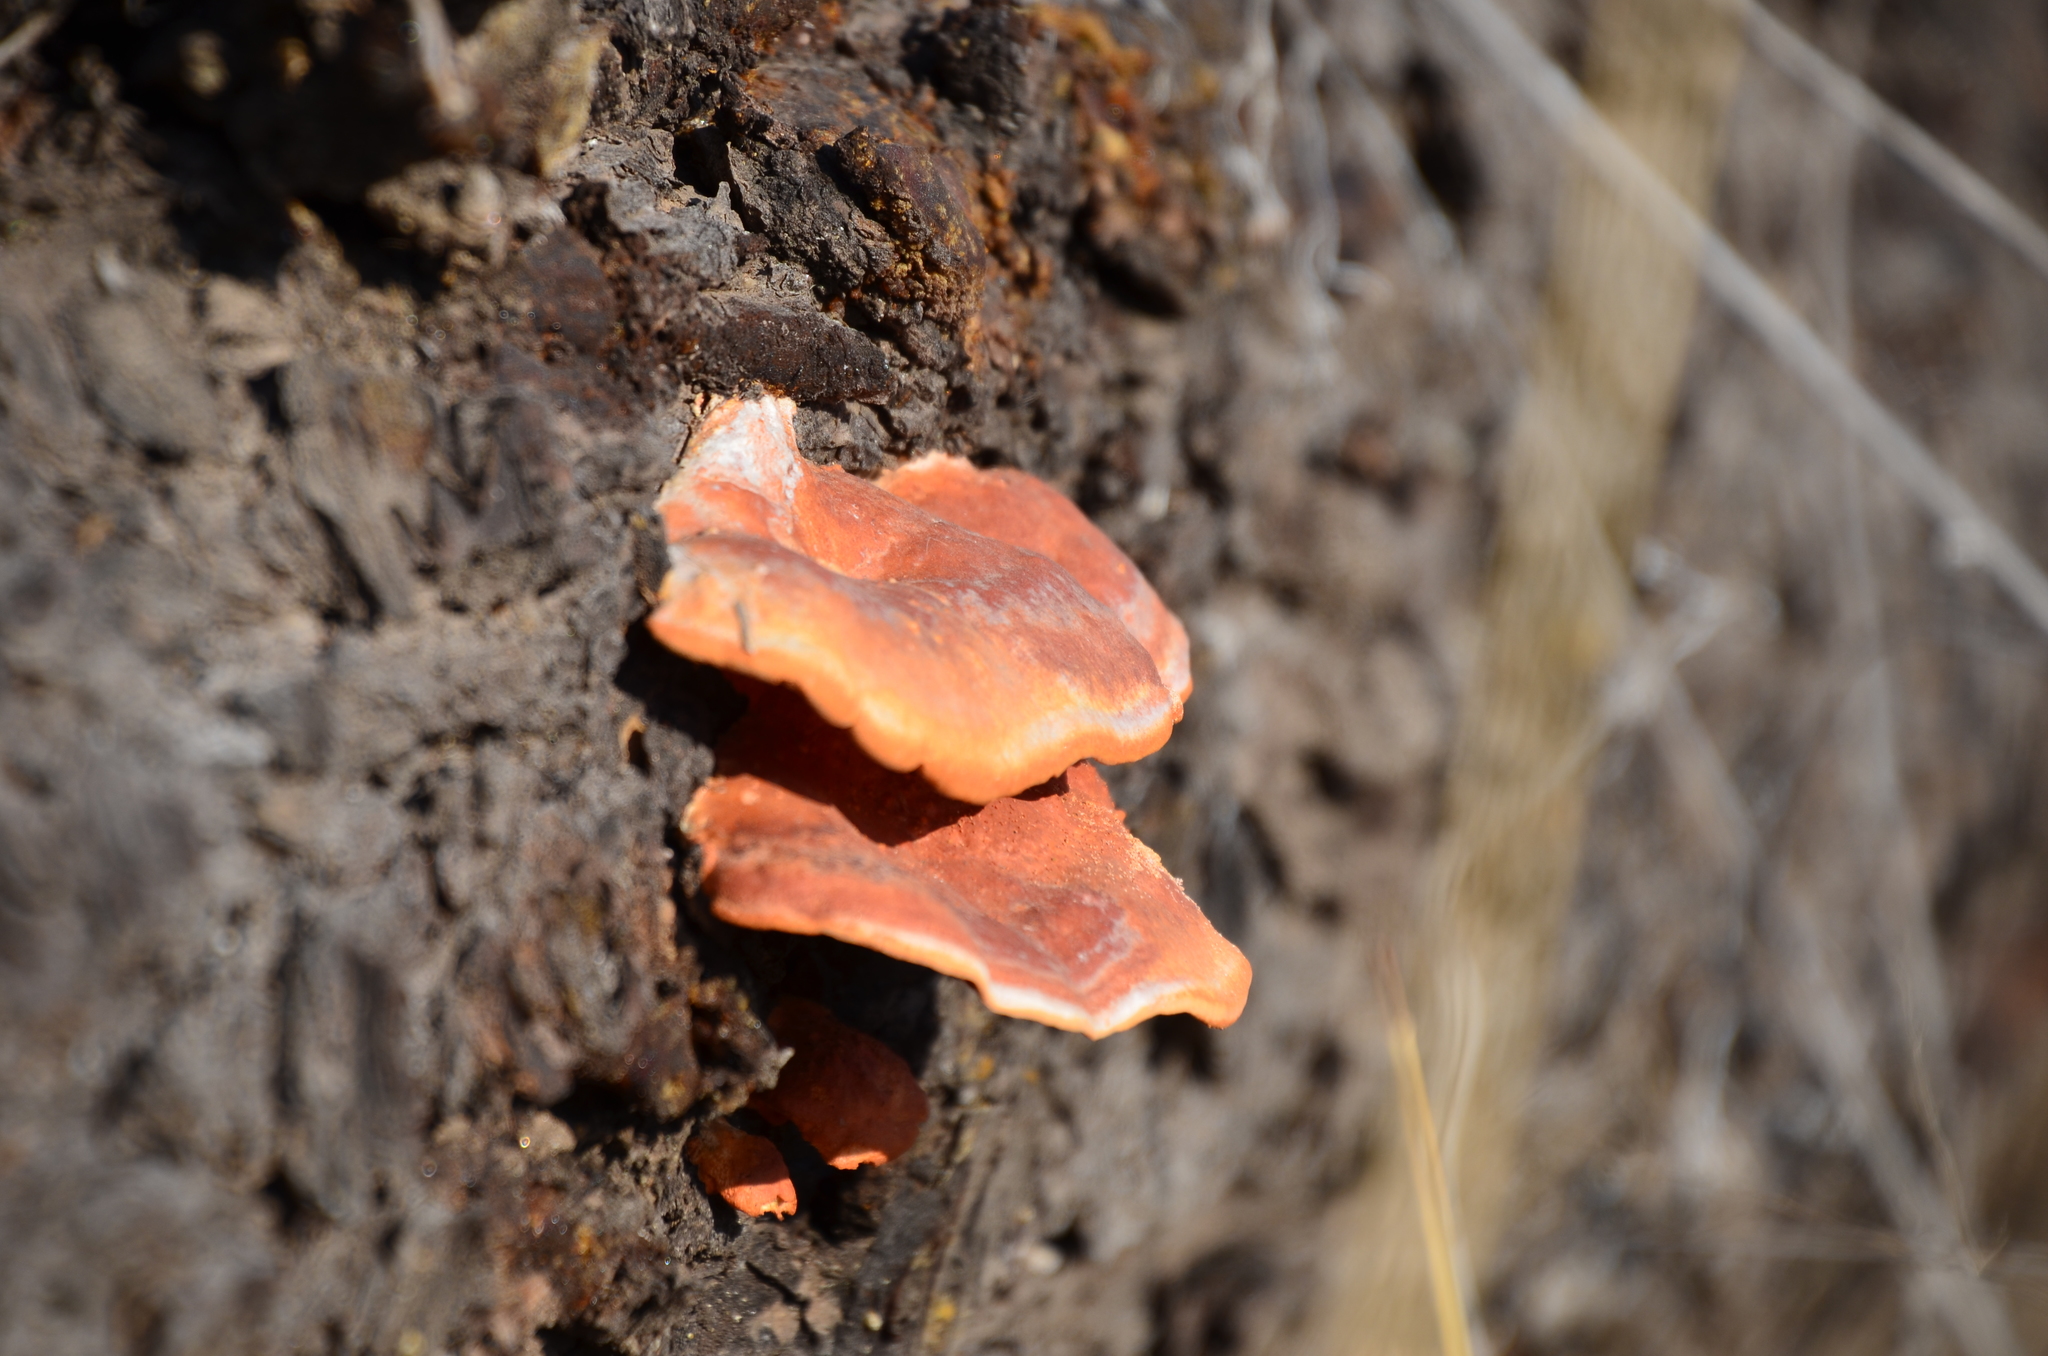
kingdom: Fungi
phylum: Basidiomycota
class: Agaricomycetes
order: Polyporales
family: Polyporaceae
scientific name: Polyporaceae
